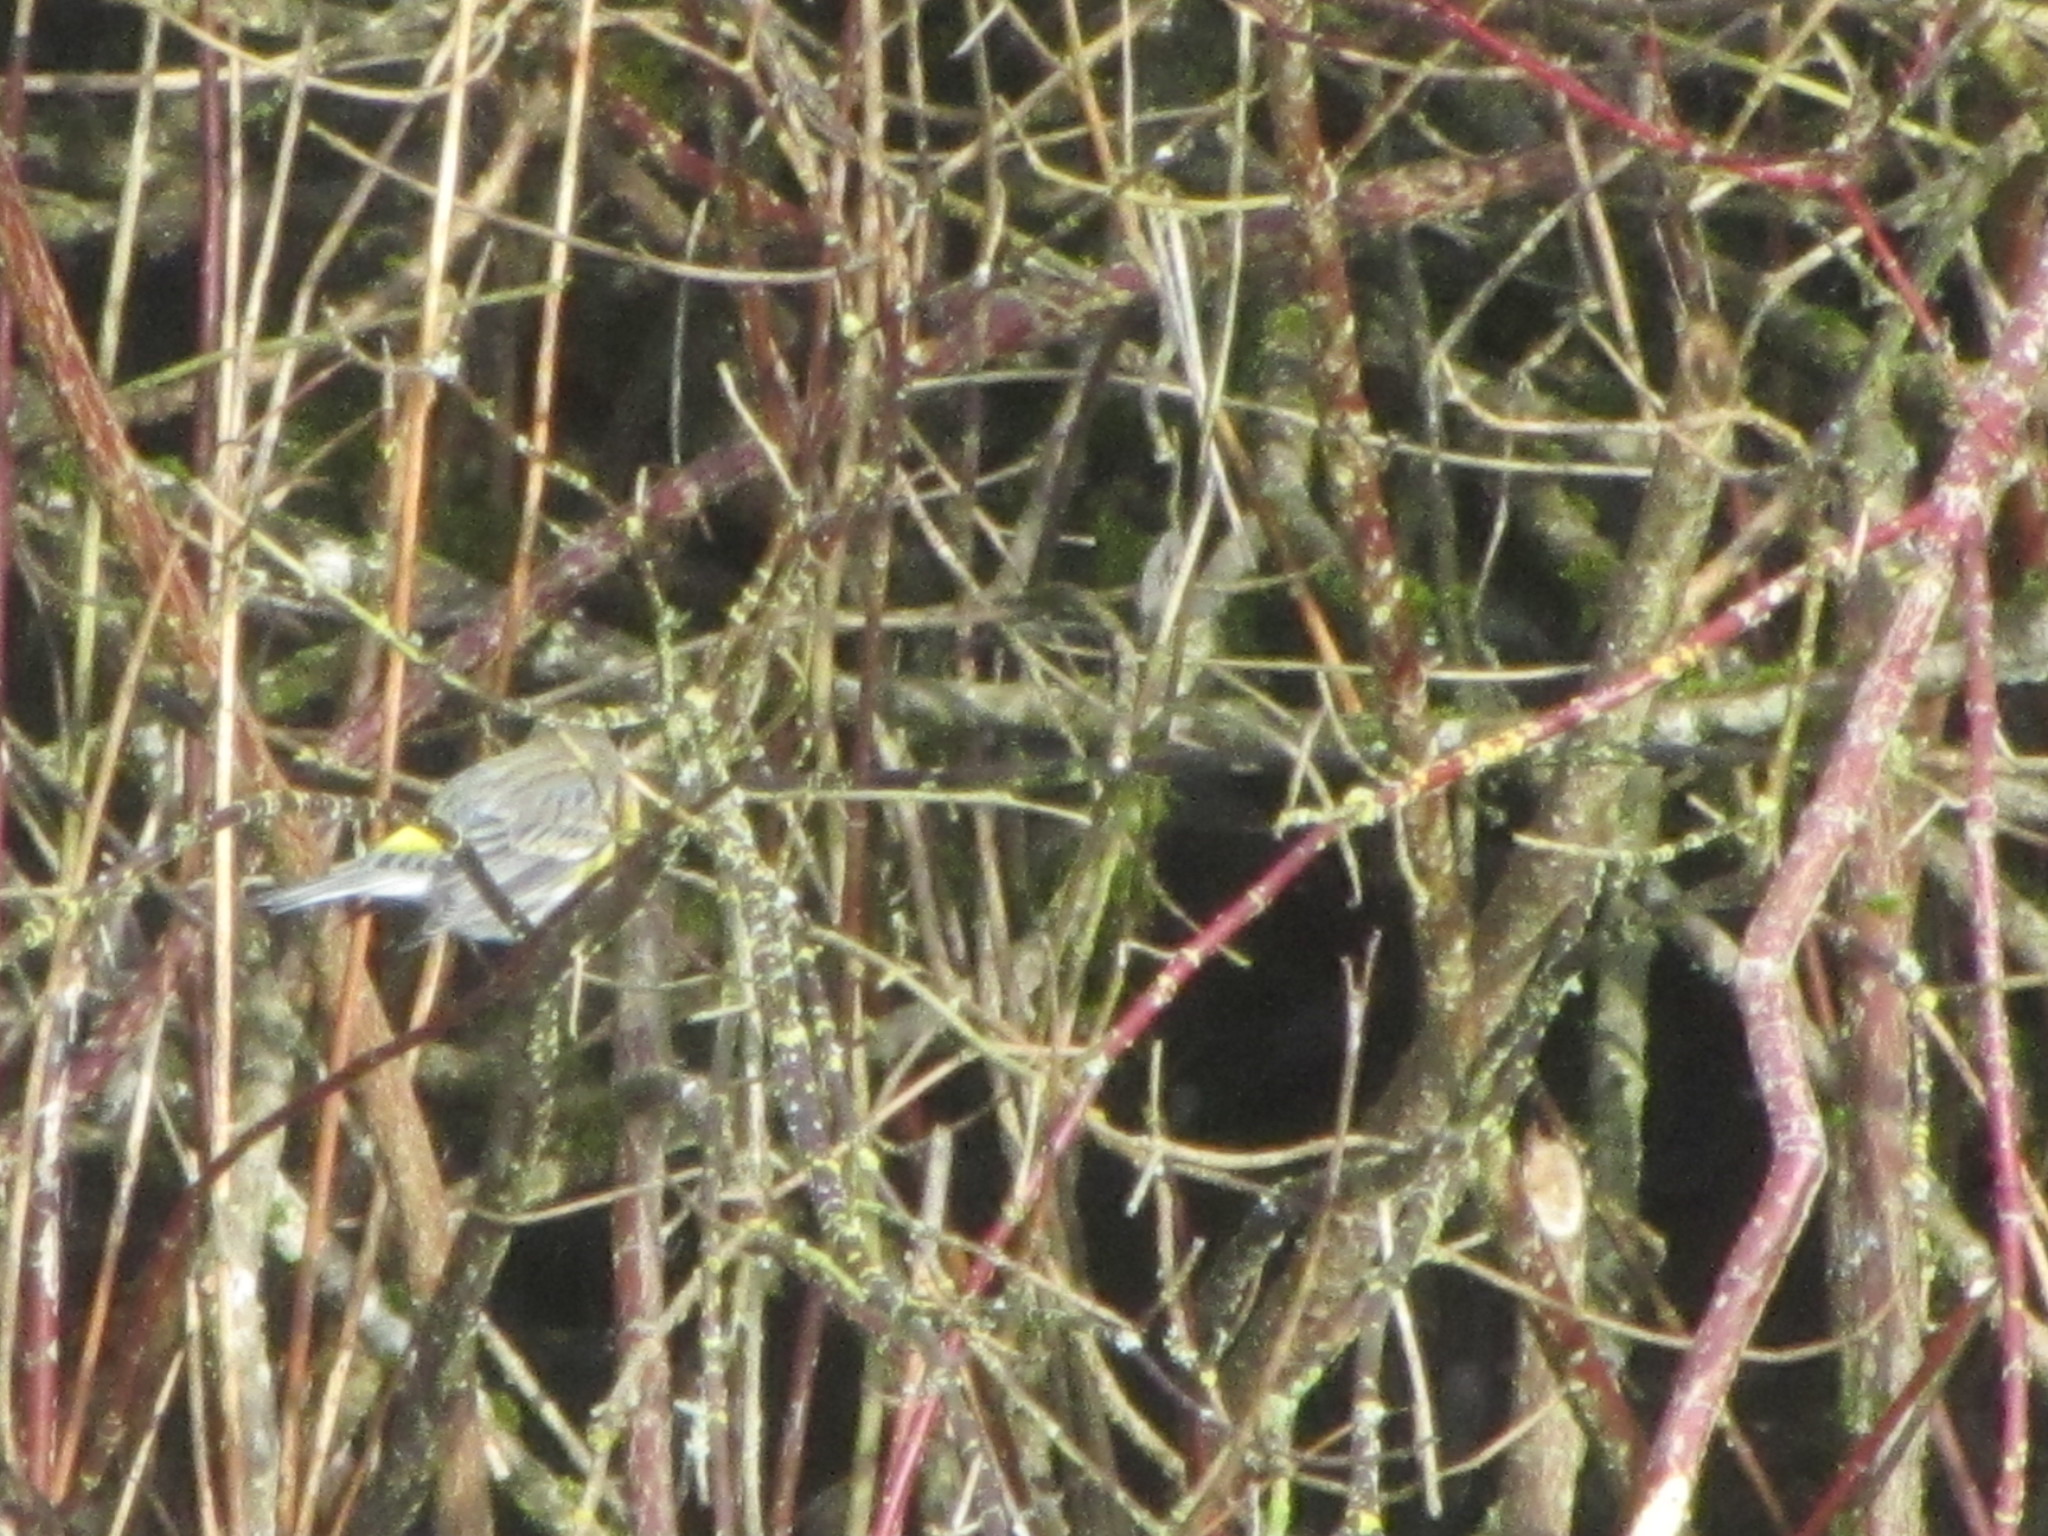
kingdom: Animalia
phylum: Chordata
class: Aves
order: Passeriformes
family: Parulidae
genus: Setophaga
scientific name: Setophaga coronata
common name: Myrtle warbler
